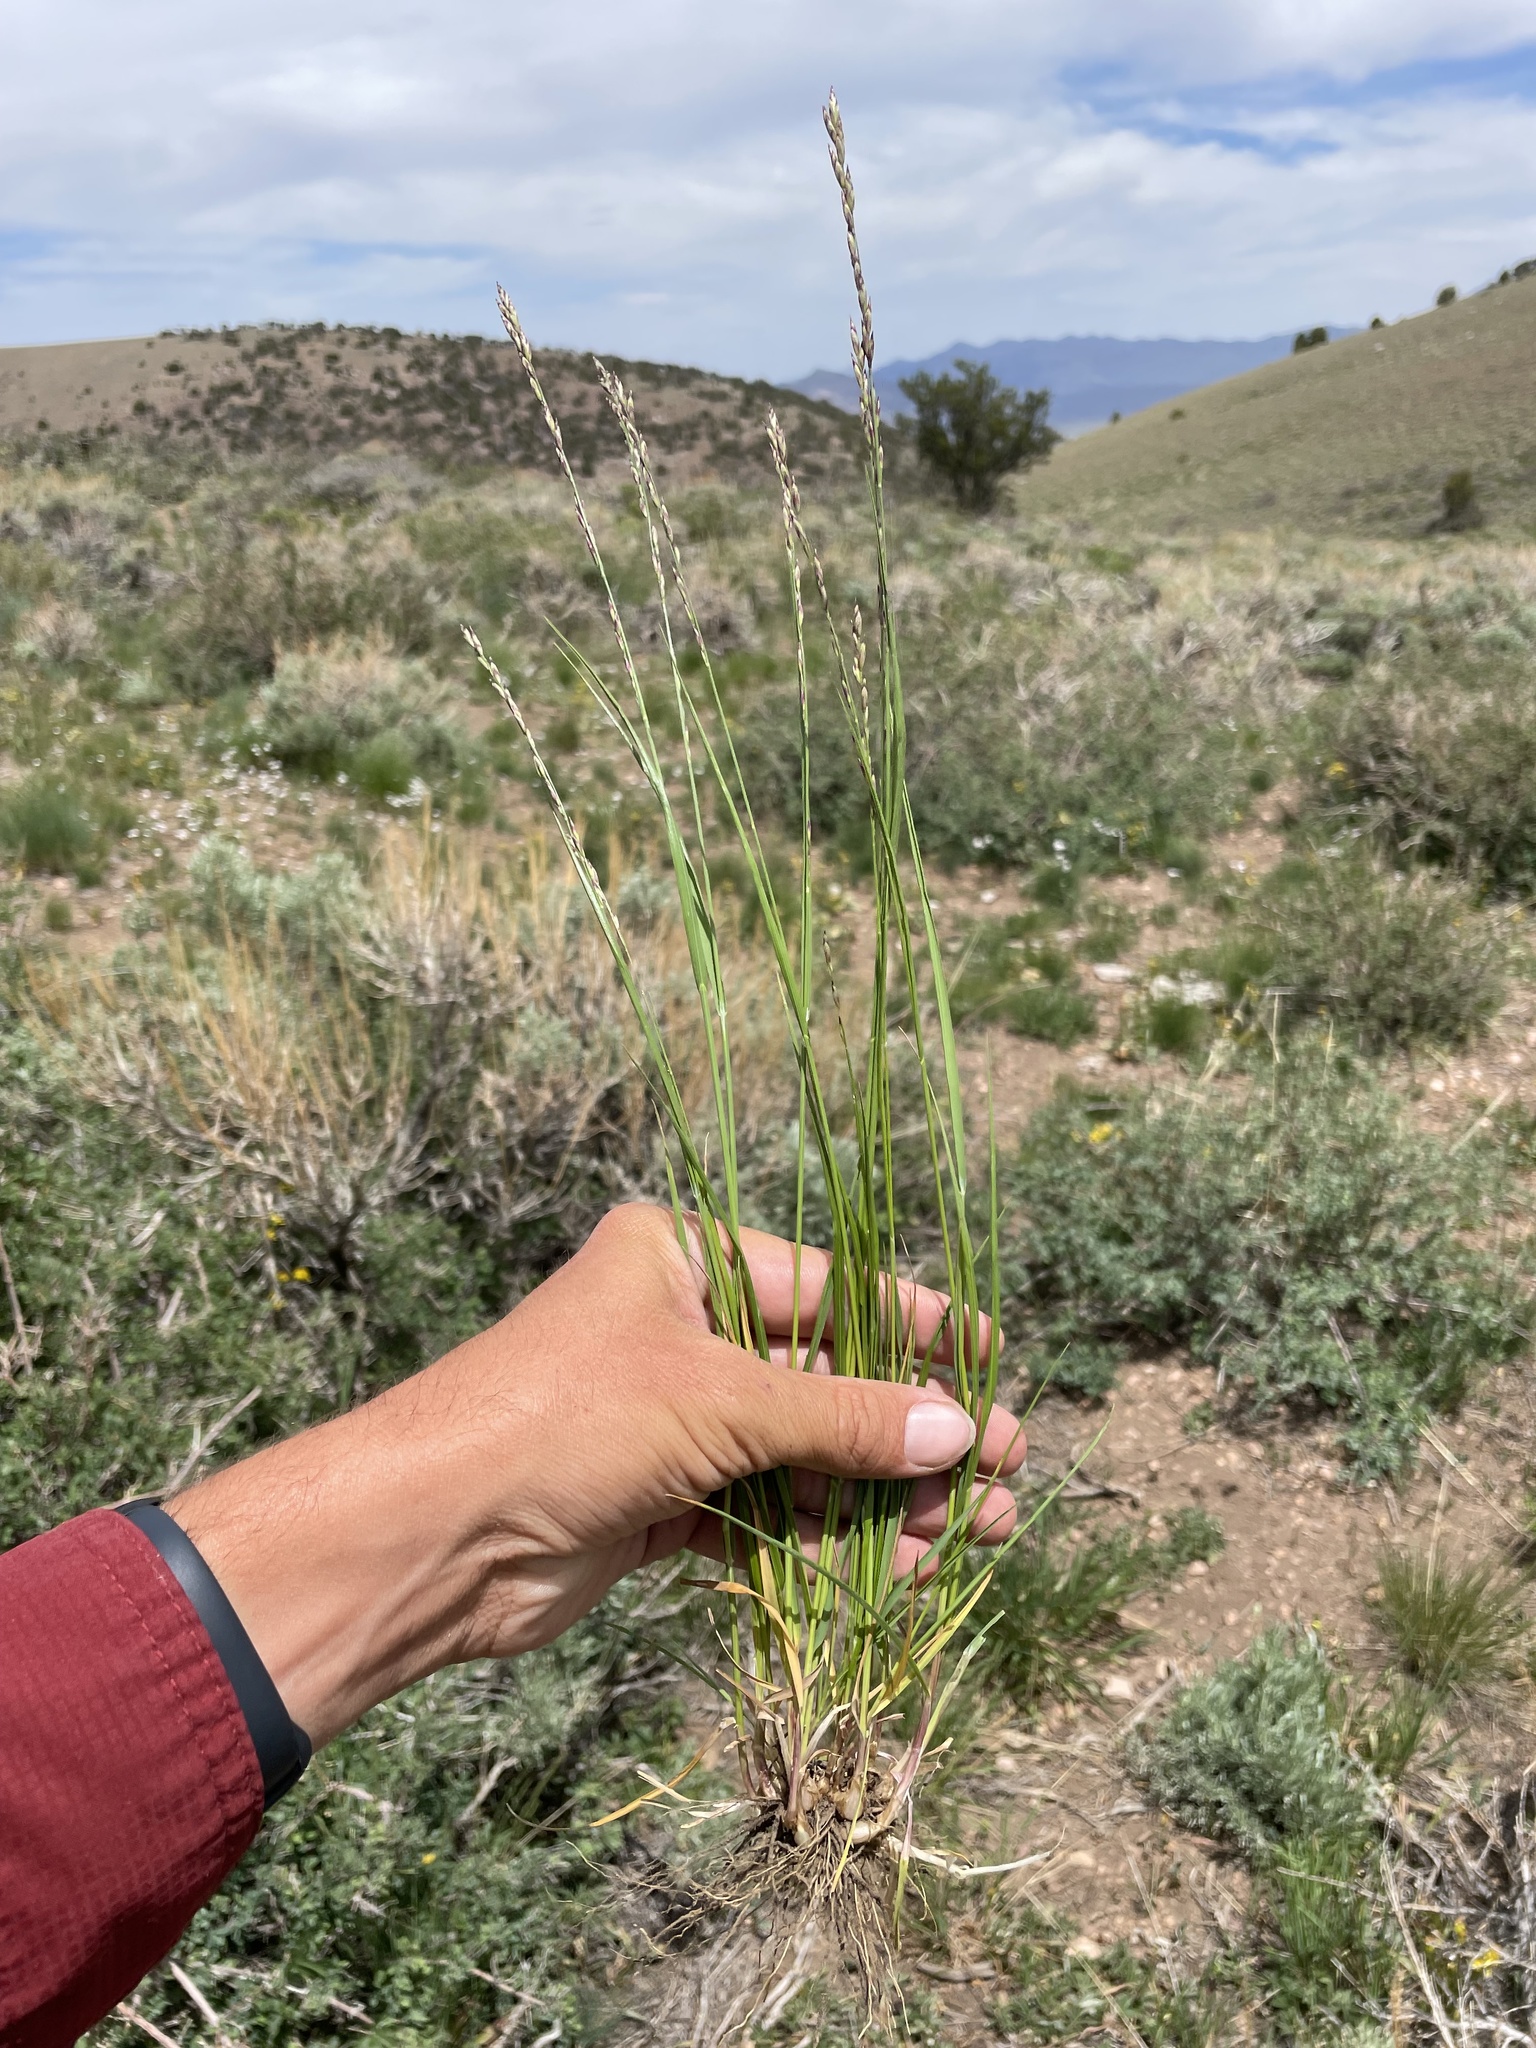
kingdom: Plantae
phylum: Tracheophyta
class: Liliopsida
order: Poales
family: Poaceae
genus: Melica
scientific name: Melica bulbosa
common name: Bulbous oniongrass
